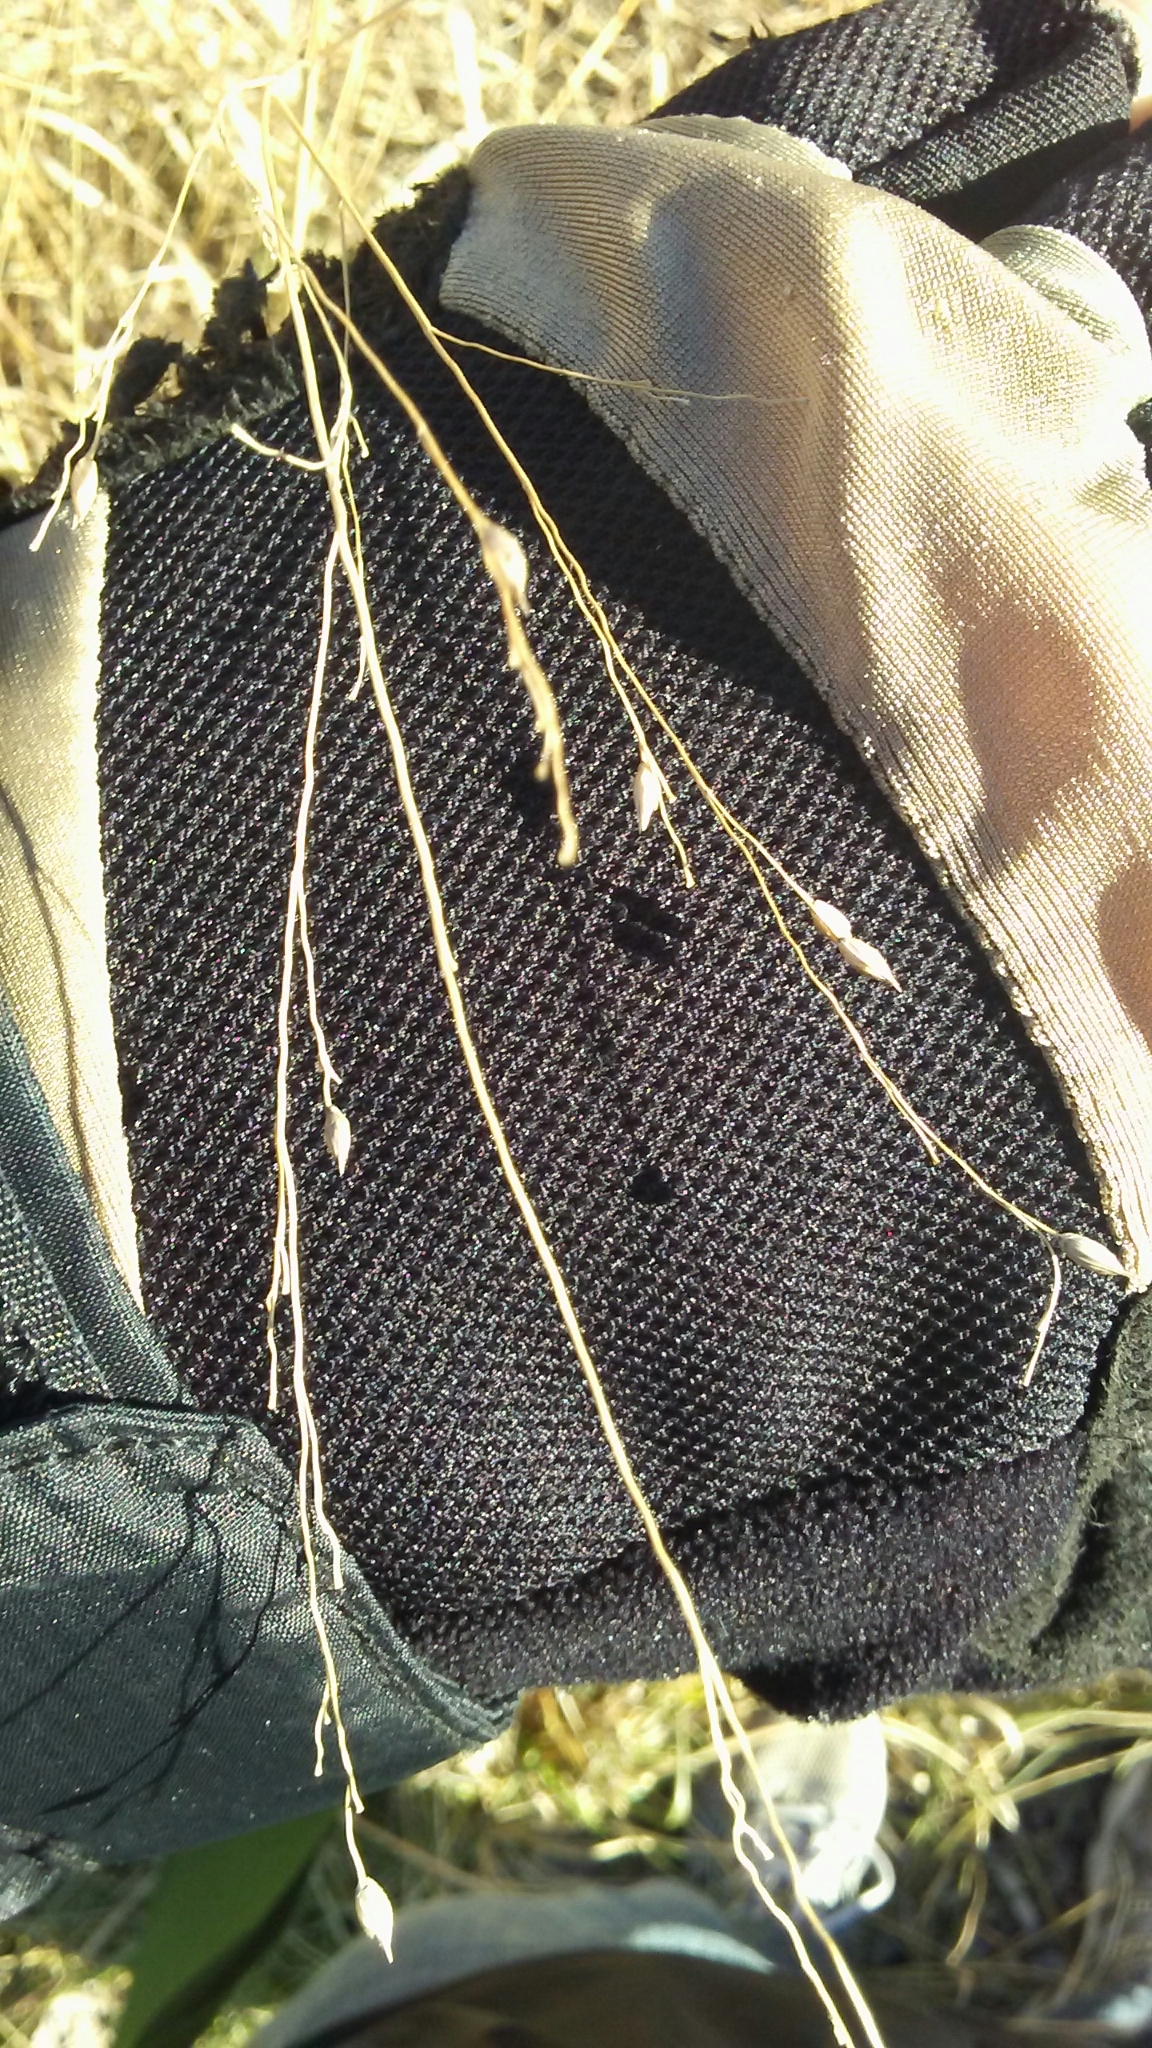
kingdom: Plantae
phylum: Tracheophyta
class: Liliopsida
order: Poales
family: Poaceae
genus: Panicum
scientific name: Panicum virgatum
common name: Switchgrass
